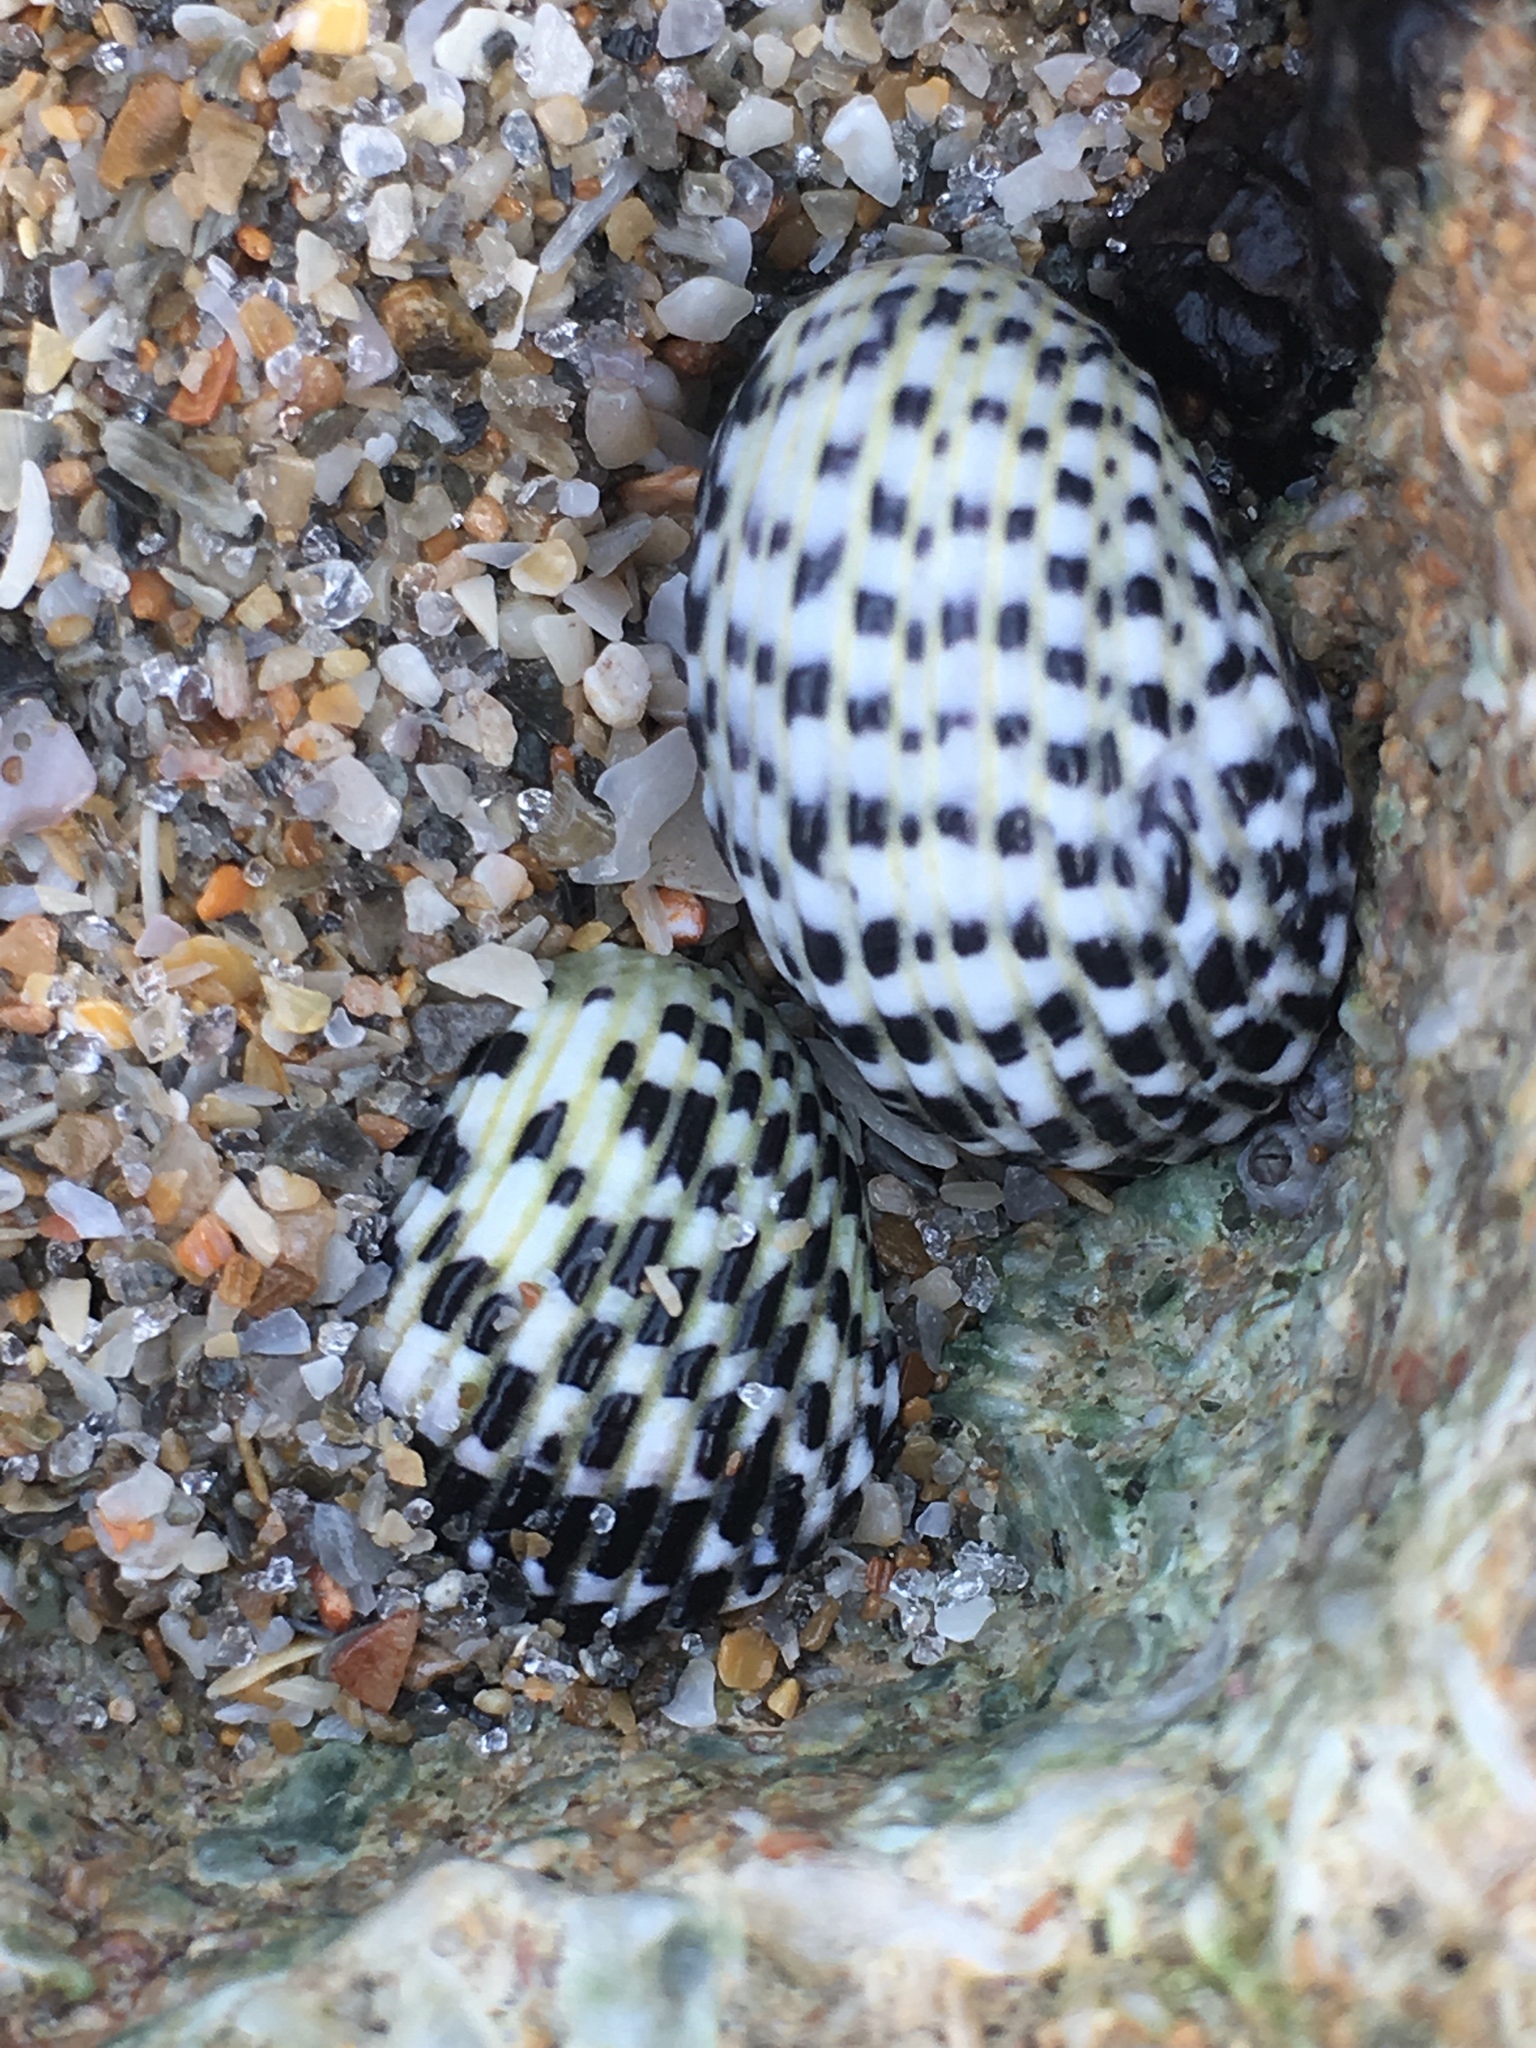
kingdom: Animalia
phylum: Mollusca
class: Gastropoda
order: Cycloneritida
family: Neritidae
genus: Nerita
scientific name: Nerita tessellata
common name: Checkered nerite
